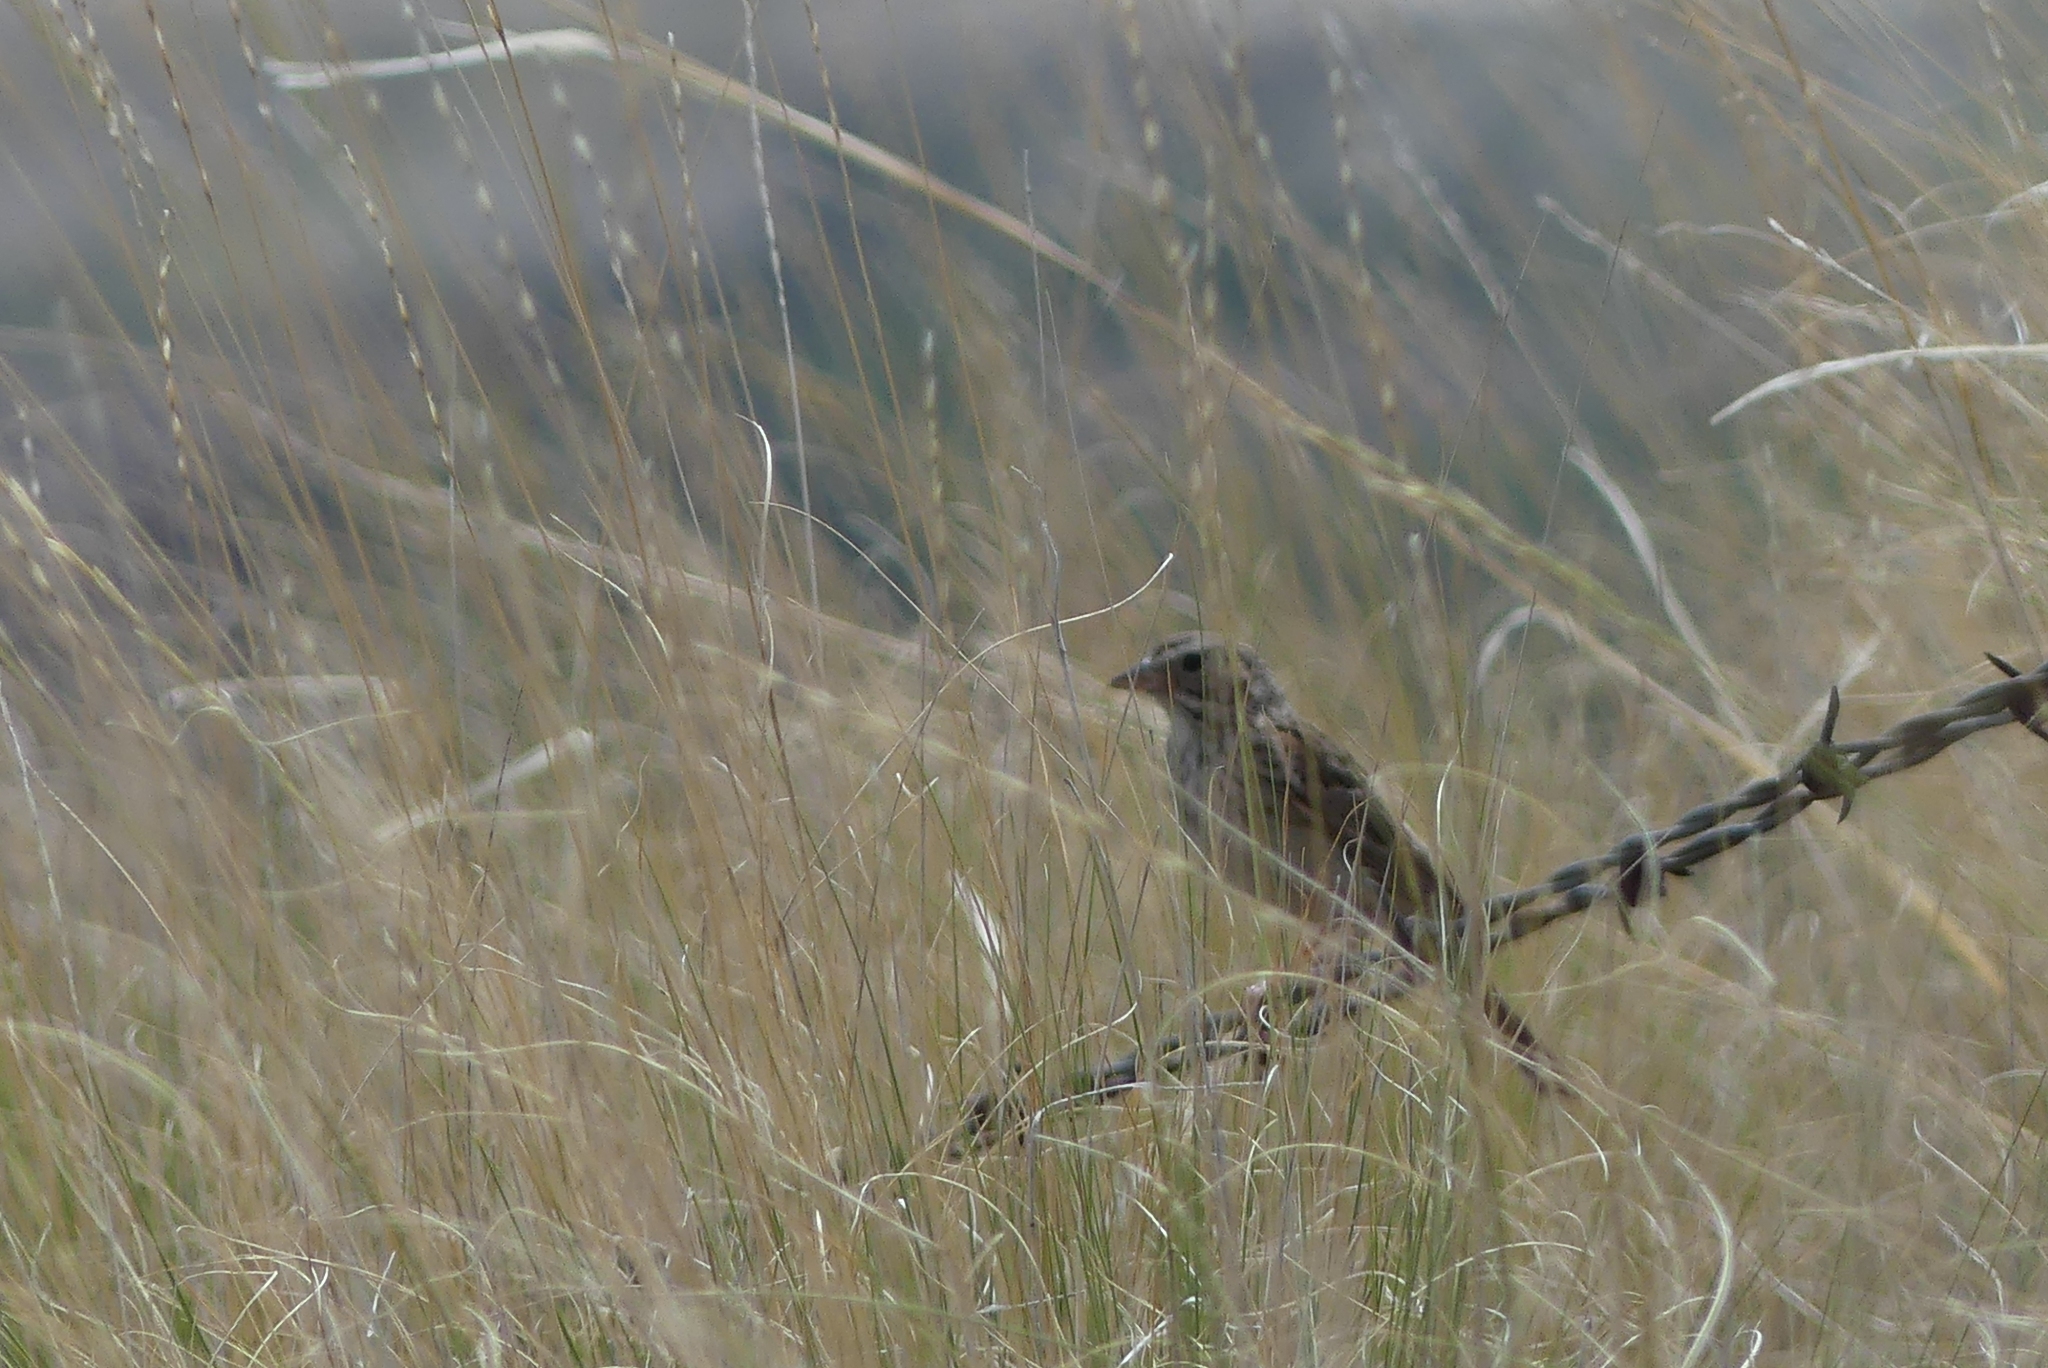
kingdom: Animalia
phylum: Chordata
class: Aves
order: Passeriformes
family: Passerellidae
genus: Pooecetes
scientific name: Pooecetes gramineus
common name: Vesper sparrow
